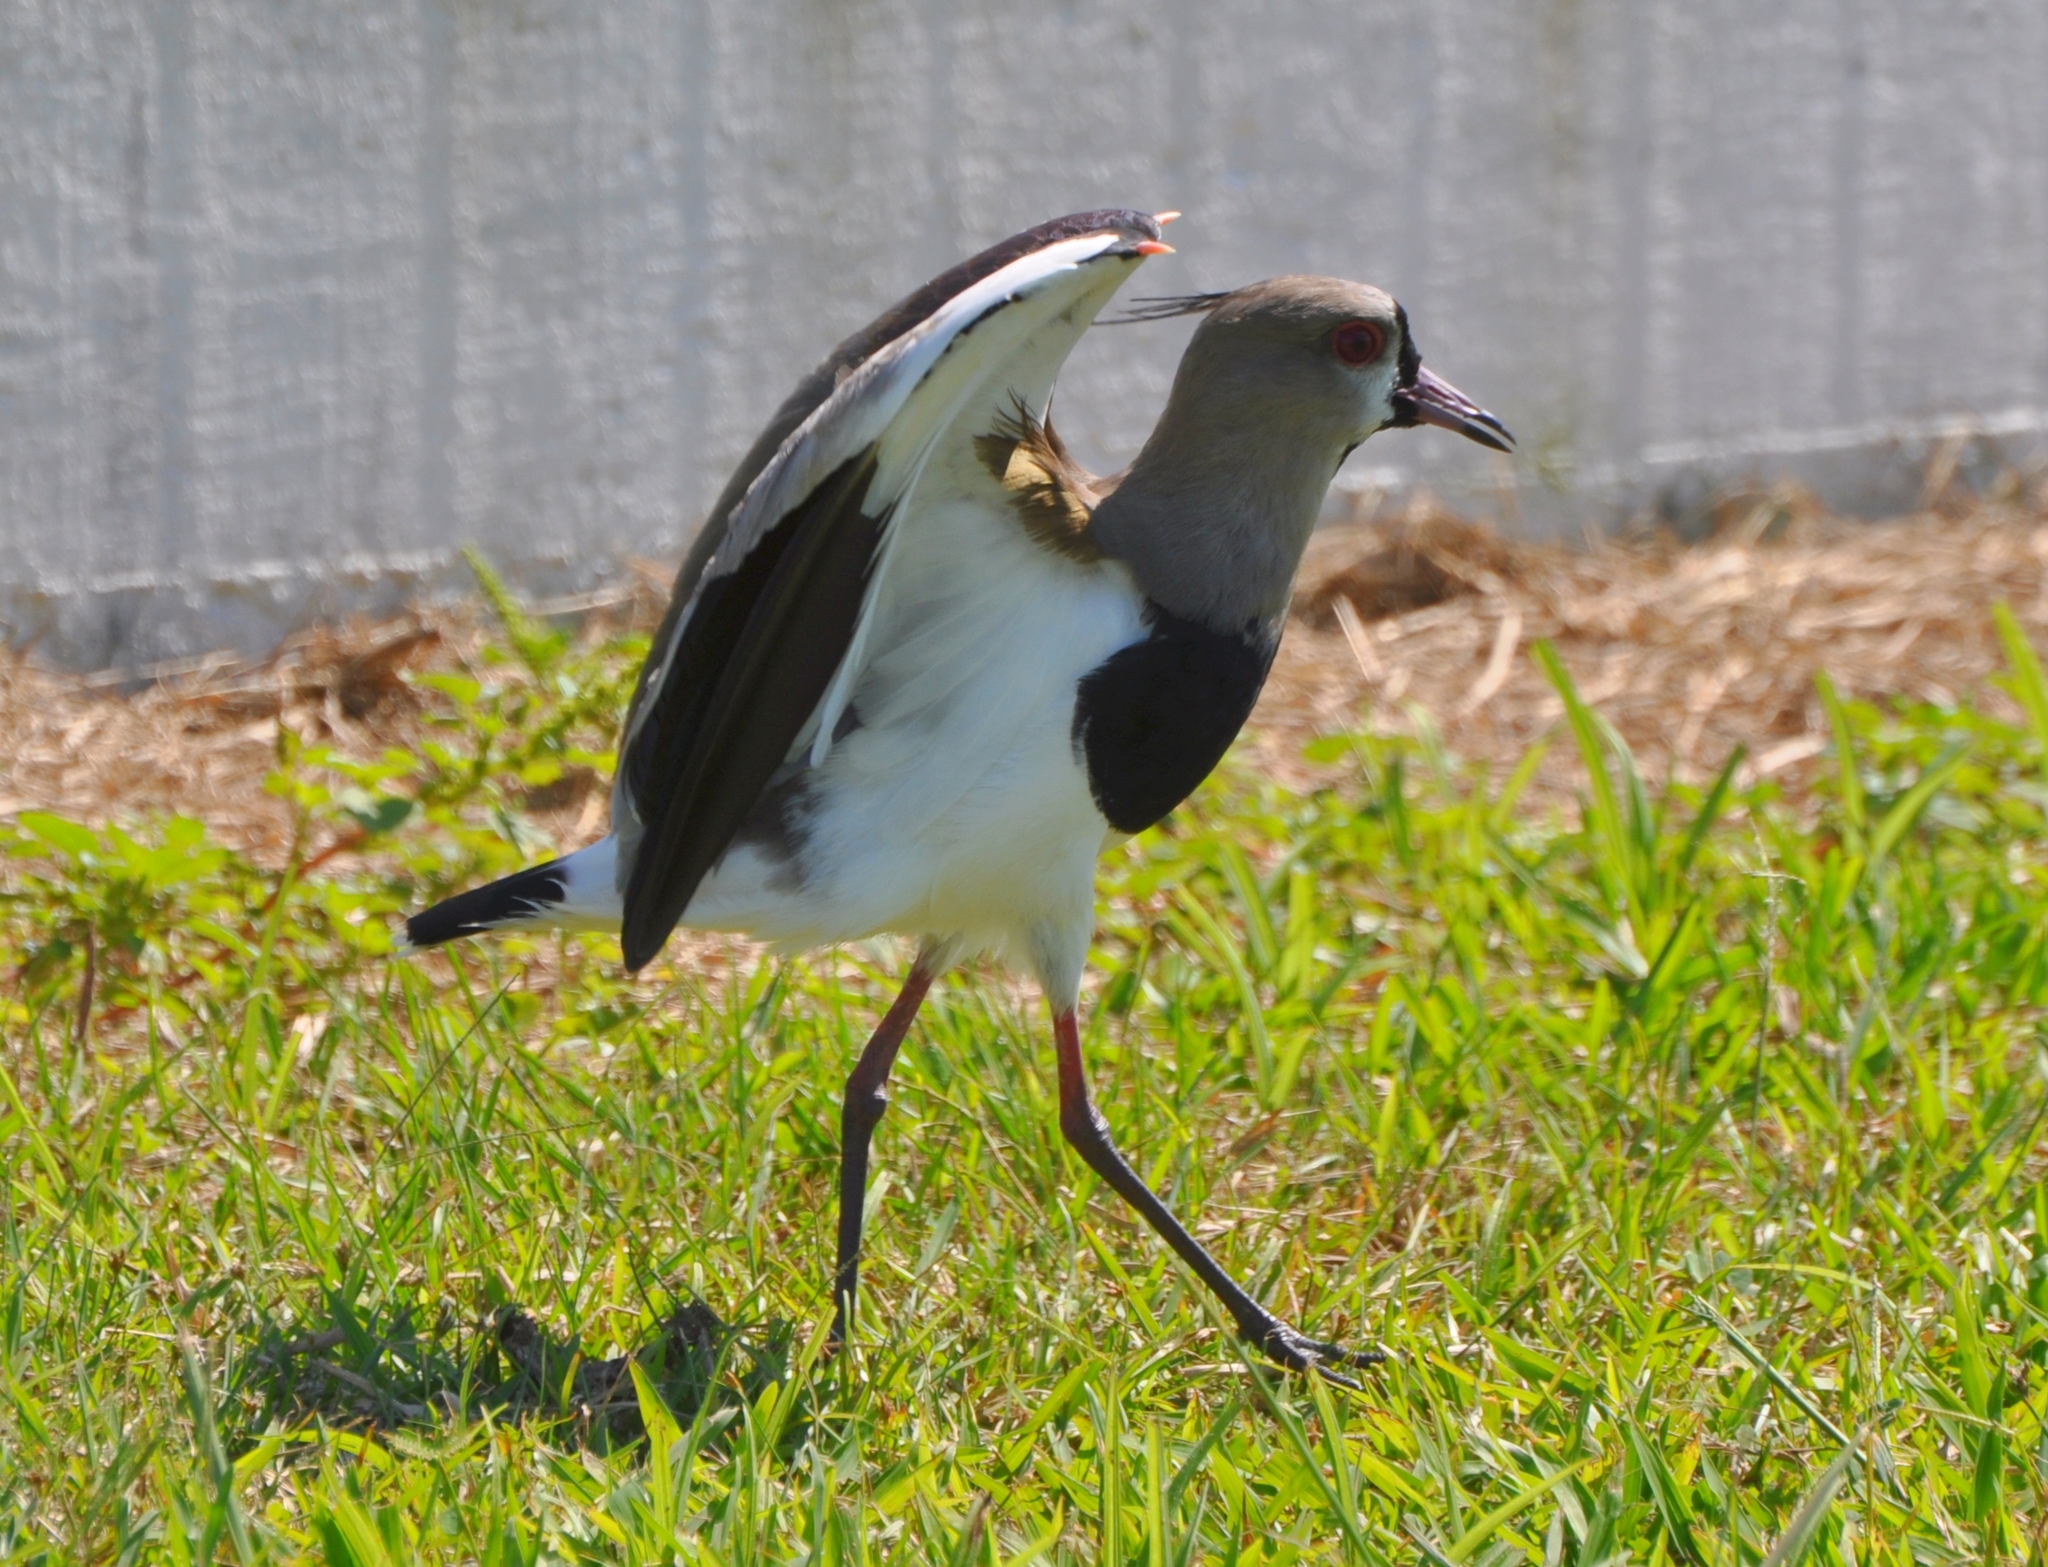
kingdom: Animalia
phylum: Chordata
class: Aves
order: Charadriiformes
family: Charadriidae
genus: Vanellus
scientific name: Vanellus chilensis
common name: Southern lapwing
